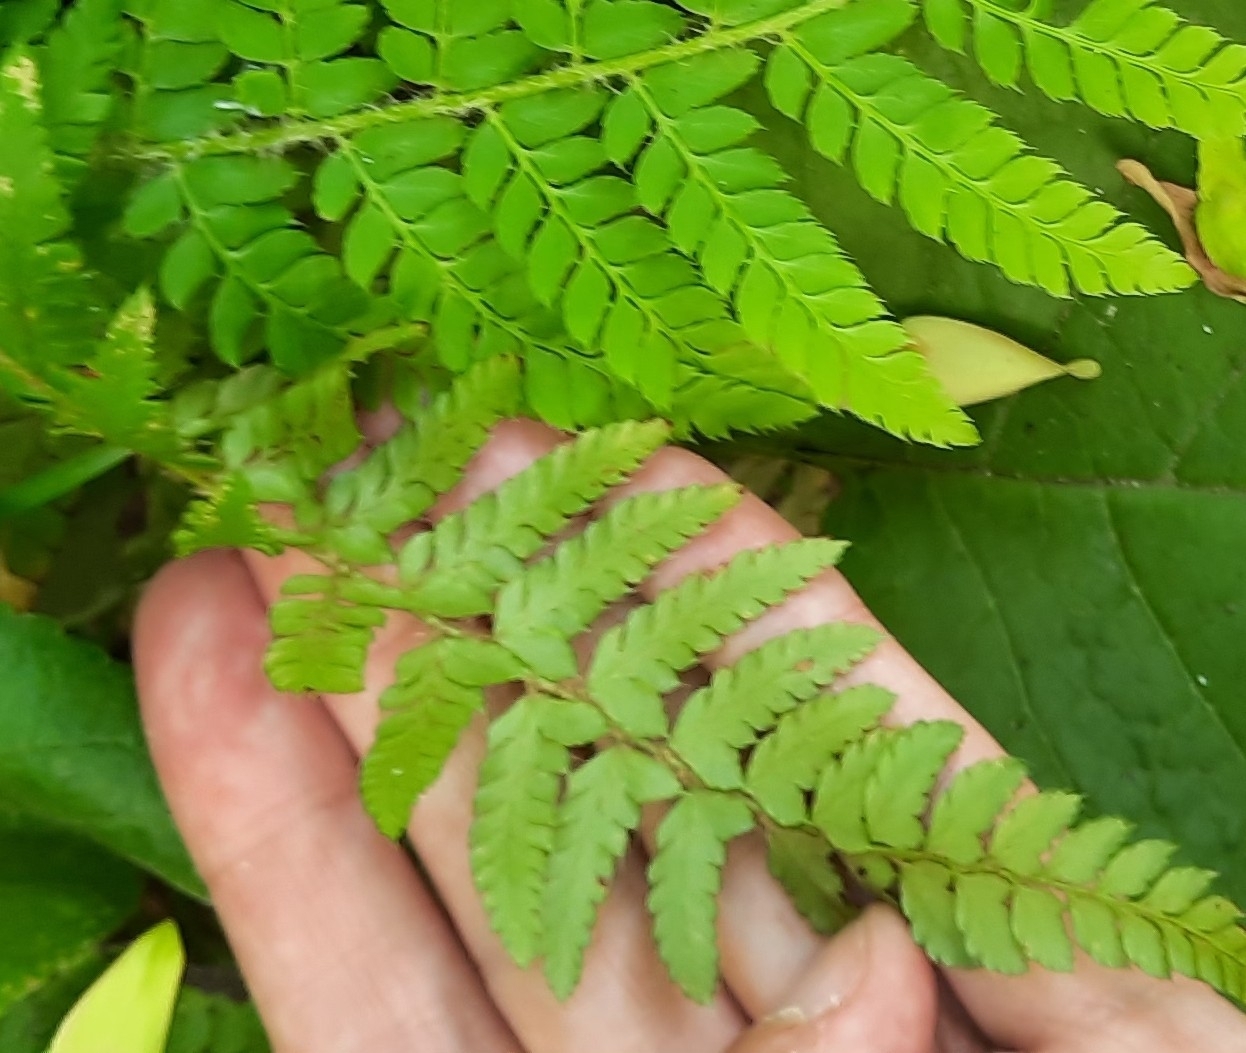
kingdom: Plantae
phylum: Tracheophyta
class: Polypodiopsida
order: Polypodiales
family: Dryopteridaceae
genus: Polystichum
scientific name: Polystichum setiferum
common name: Soft shield-fern
